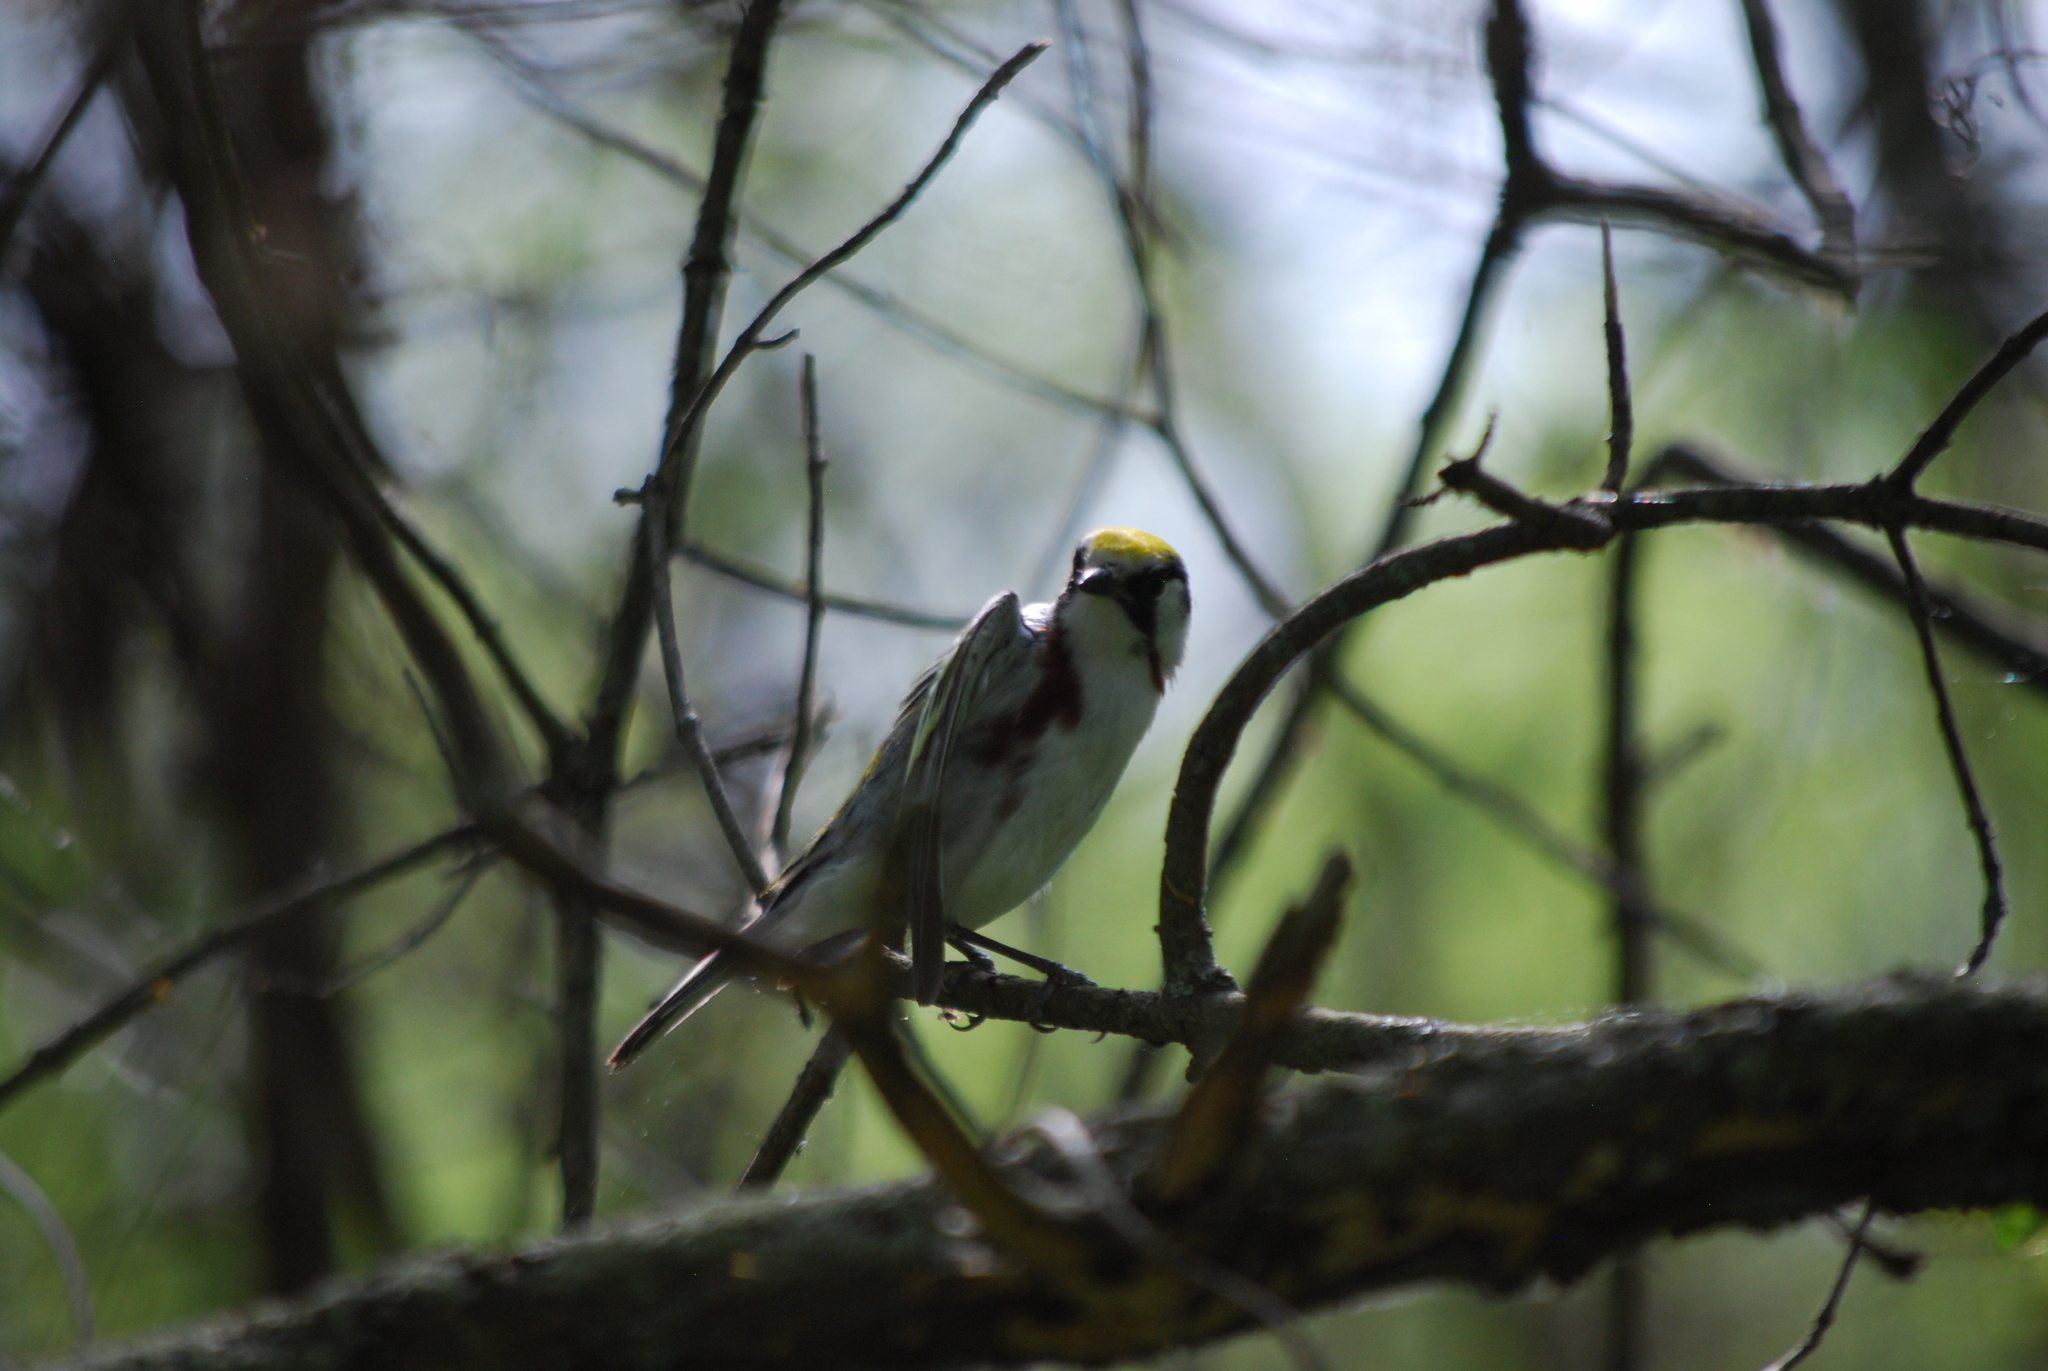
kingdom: Animalia
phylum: Chordata
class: Aves
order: Passeriformes
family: Parulidae
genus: Setophaga
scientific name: Setophaga pensylvanica
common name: Chestnut-sided warbler
